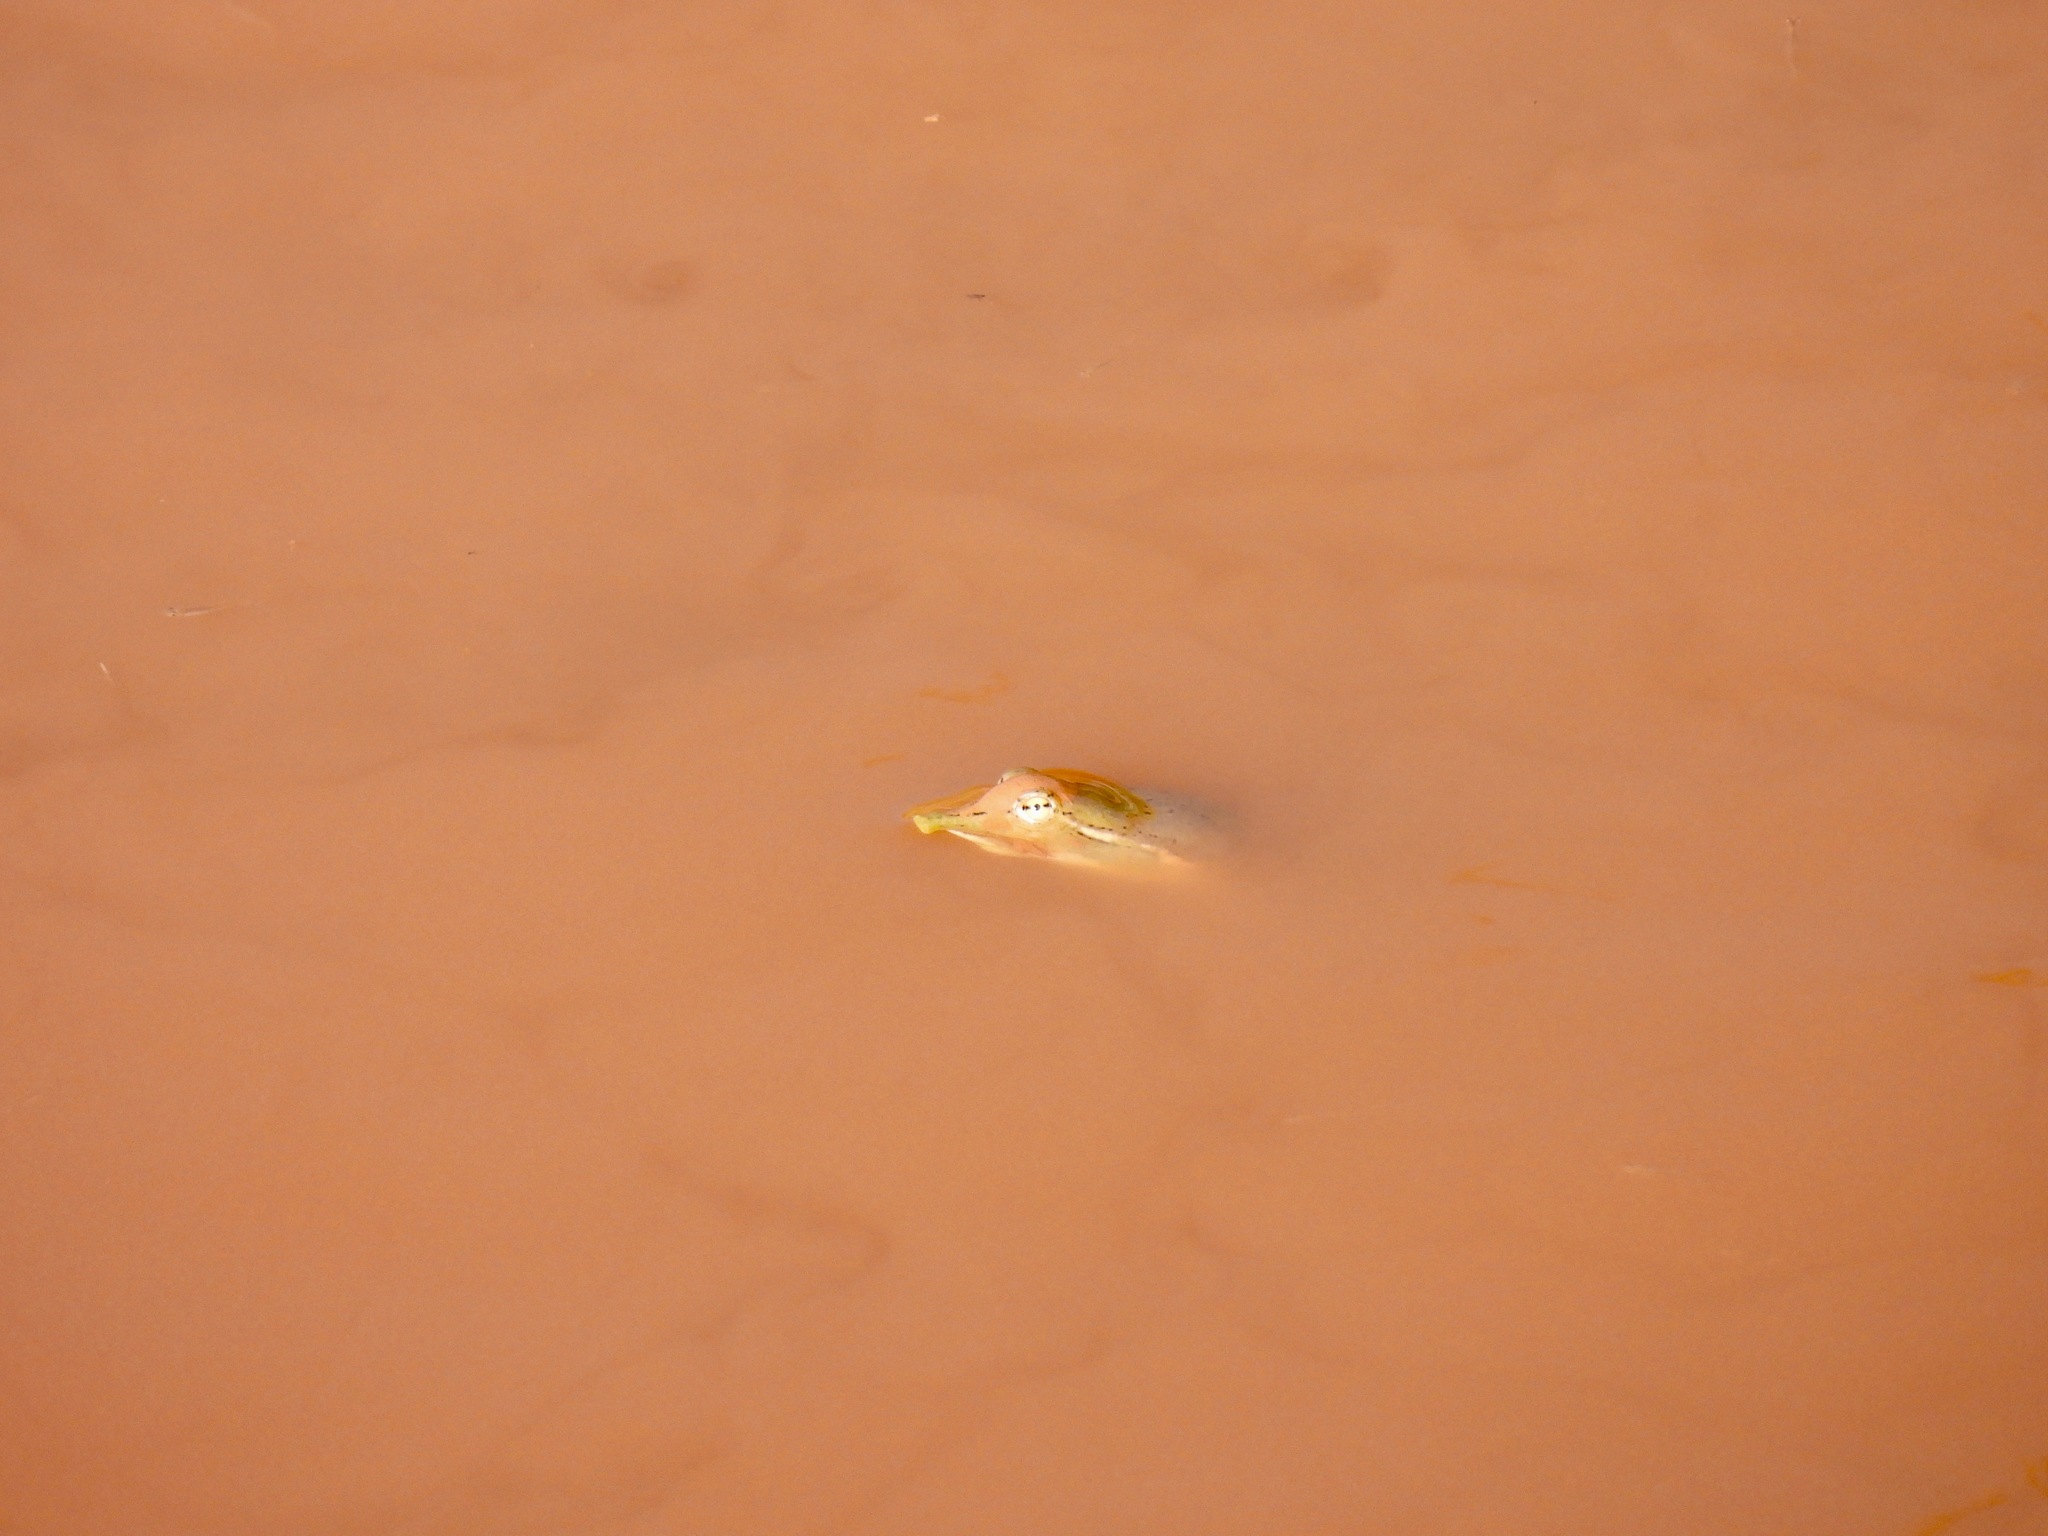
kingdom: Animalia
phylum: Chordata
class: Testudines
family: Trionychidae
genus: Apalone
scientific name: Apalone spinifera
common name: Spiny softshell turtle
